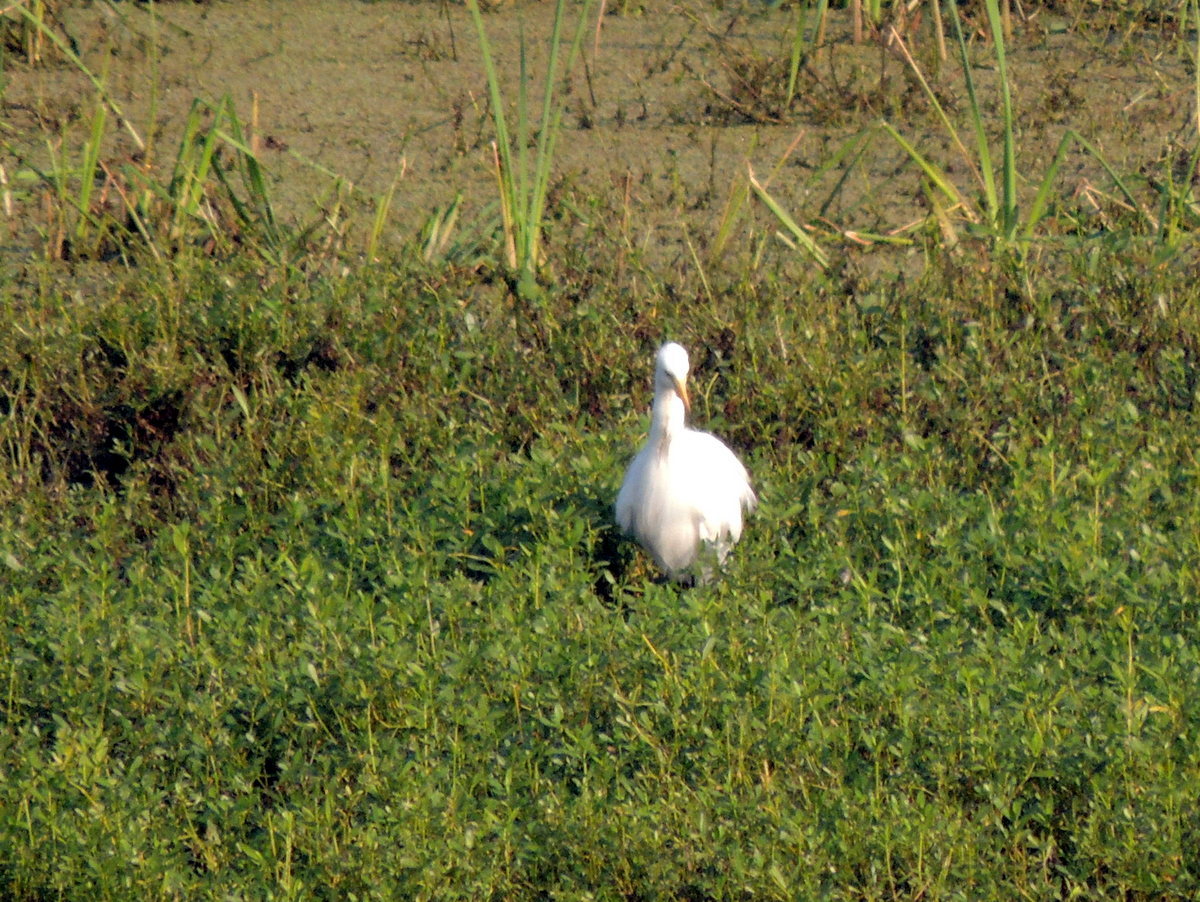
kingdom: Animalia
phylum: Chordata
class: Aves
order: Pelecaniformes
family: Ardeidae
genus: Ardea
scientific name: Ardea alba
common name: Great egret
